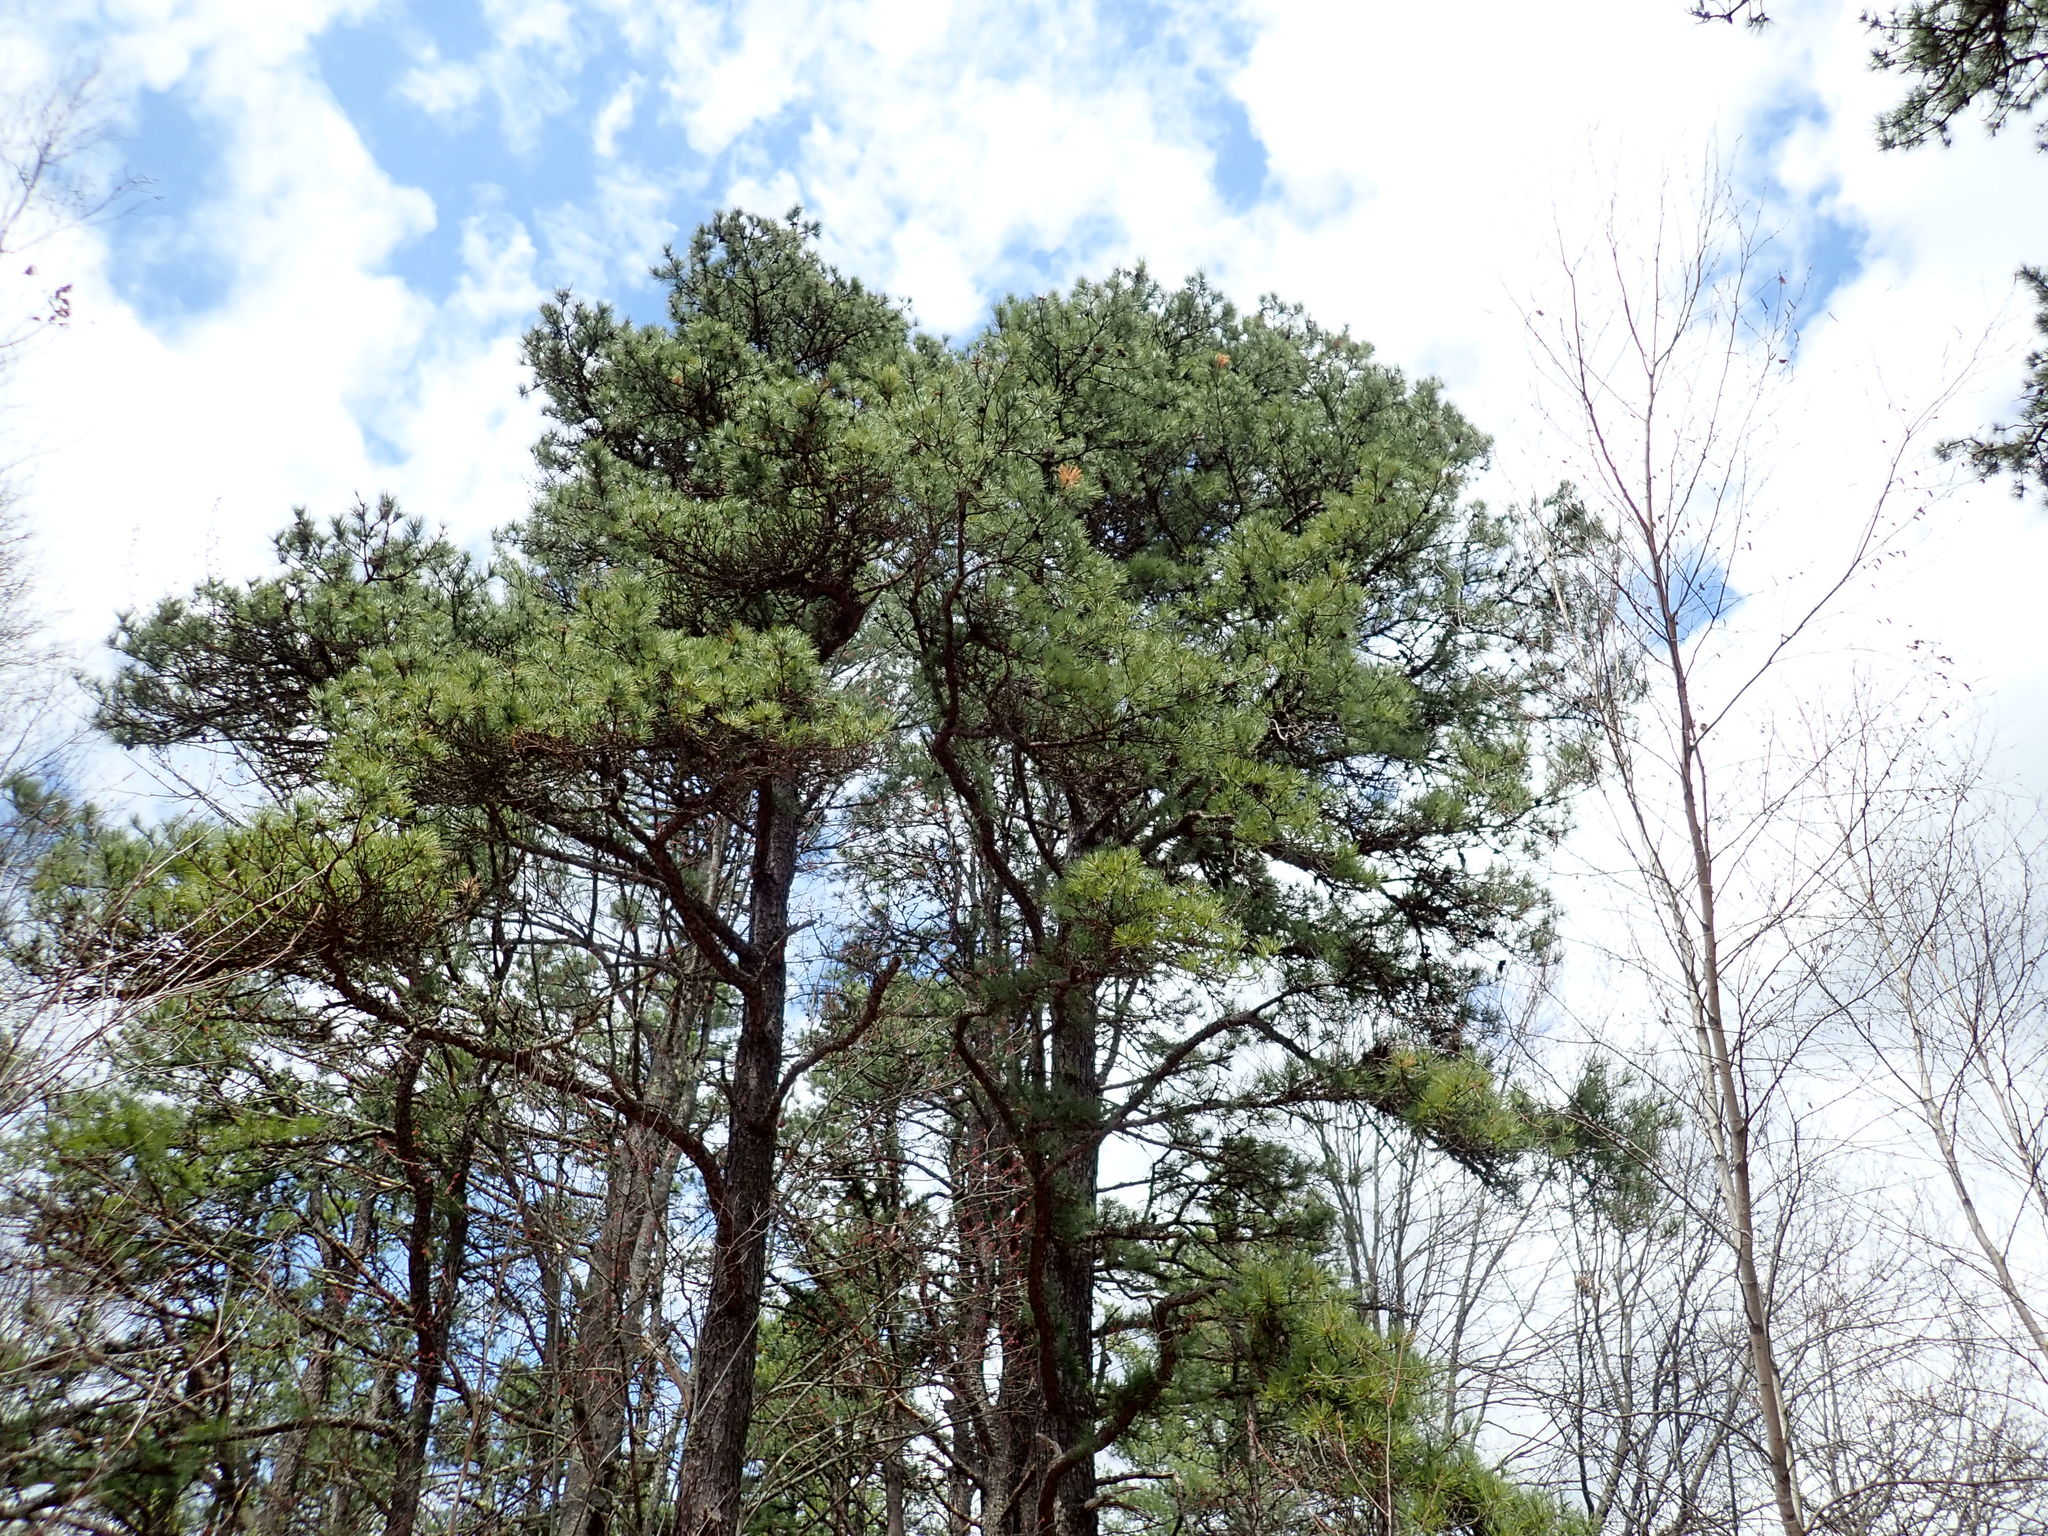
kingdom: Plantae
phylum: Tracheophyta
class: Pinopsida
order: Pinales
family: Pinaceae
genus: Pinus
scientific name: Pinus rigida
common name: Pitch pine
